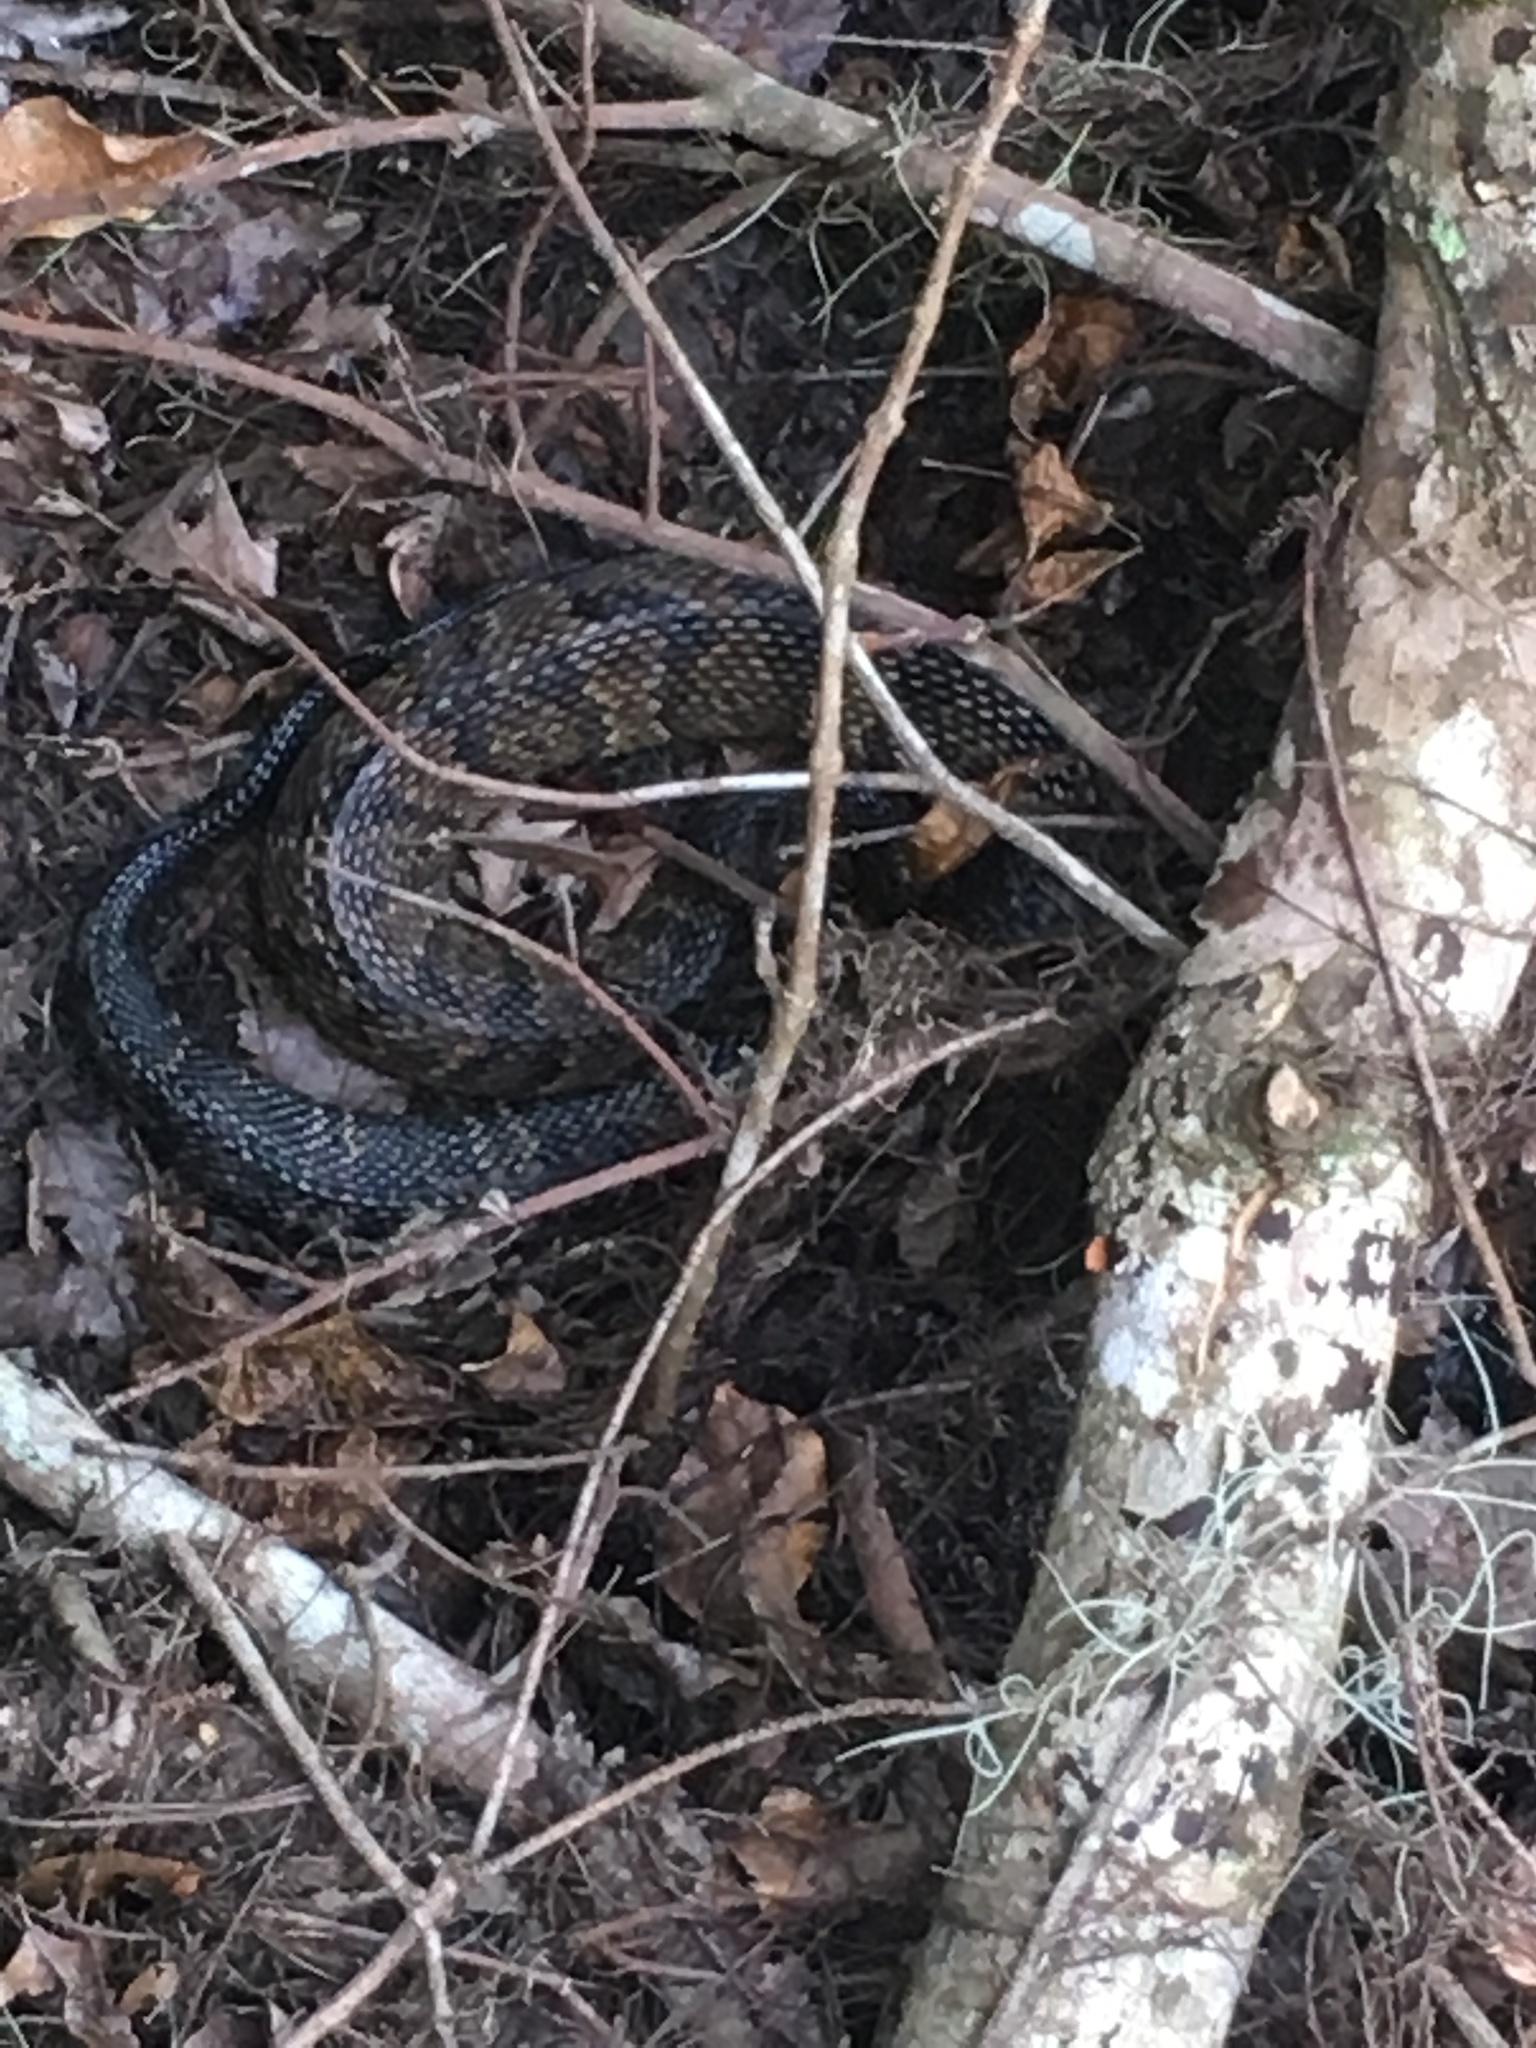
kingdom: Animalia
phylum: Chordata
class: Squamata
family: Viperidae
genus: Agkistrodon
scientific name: Agkistrodon conanti
